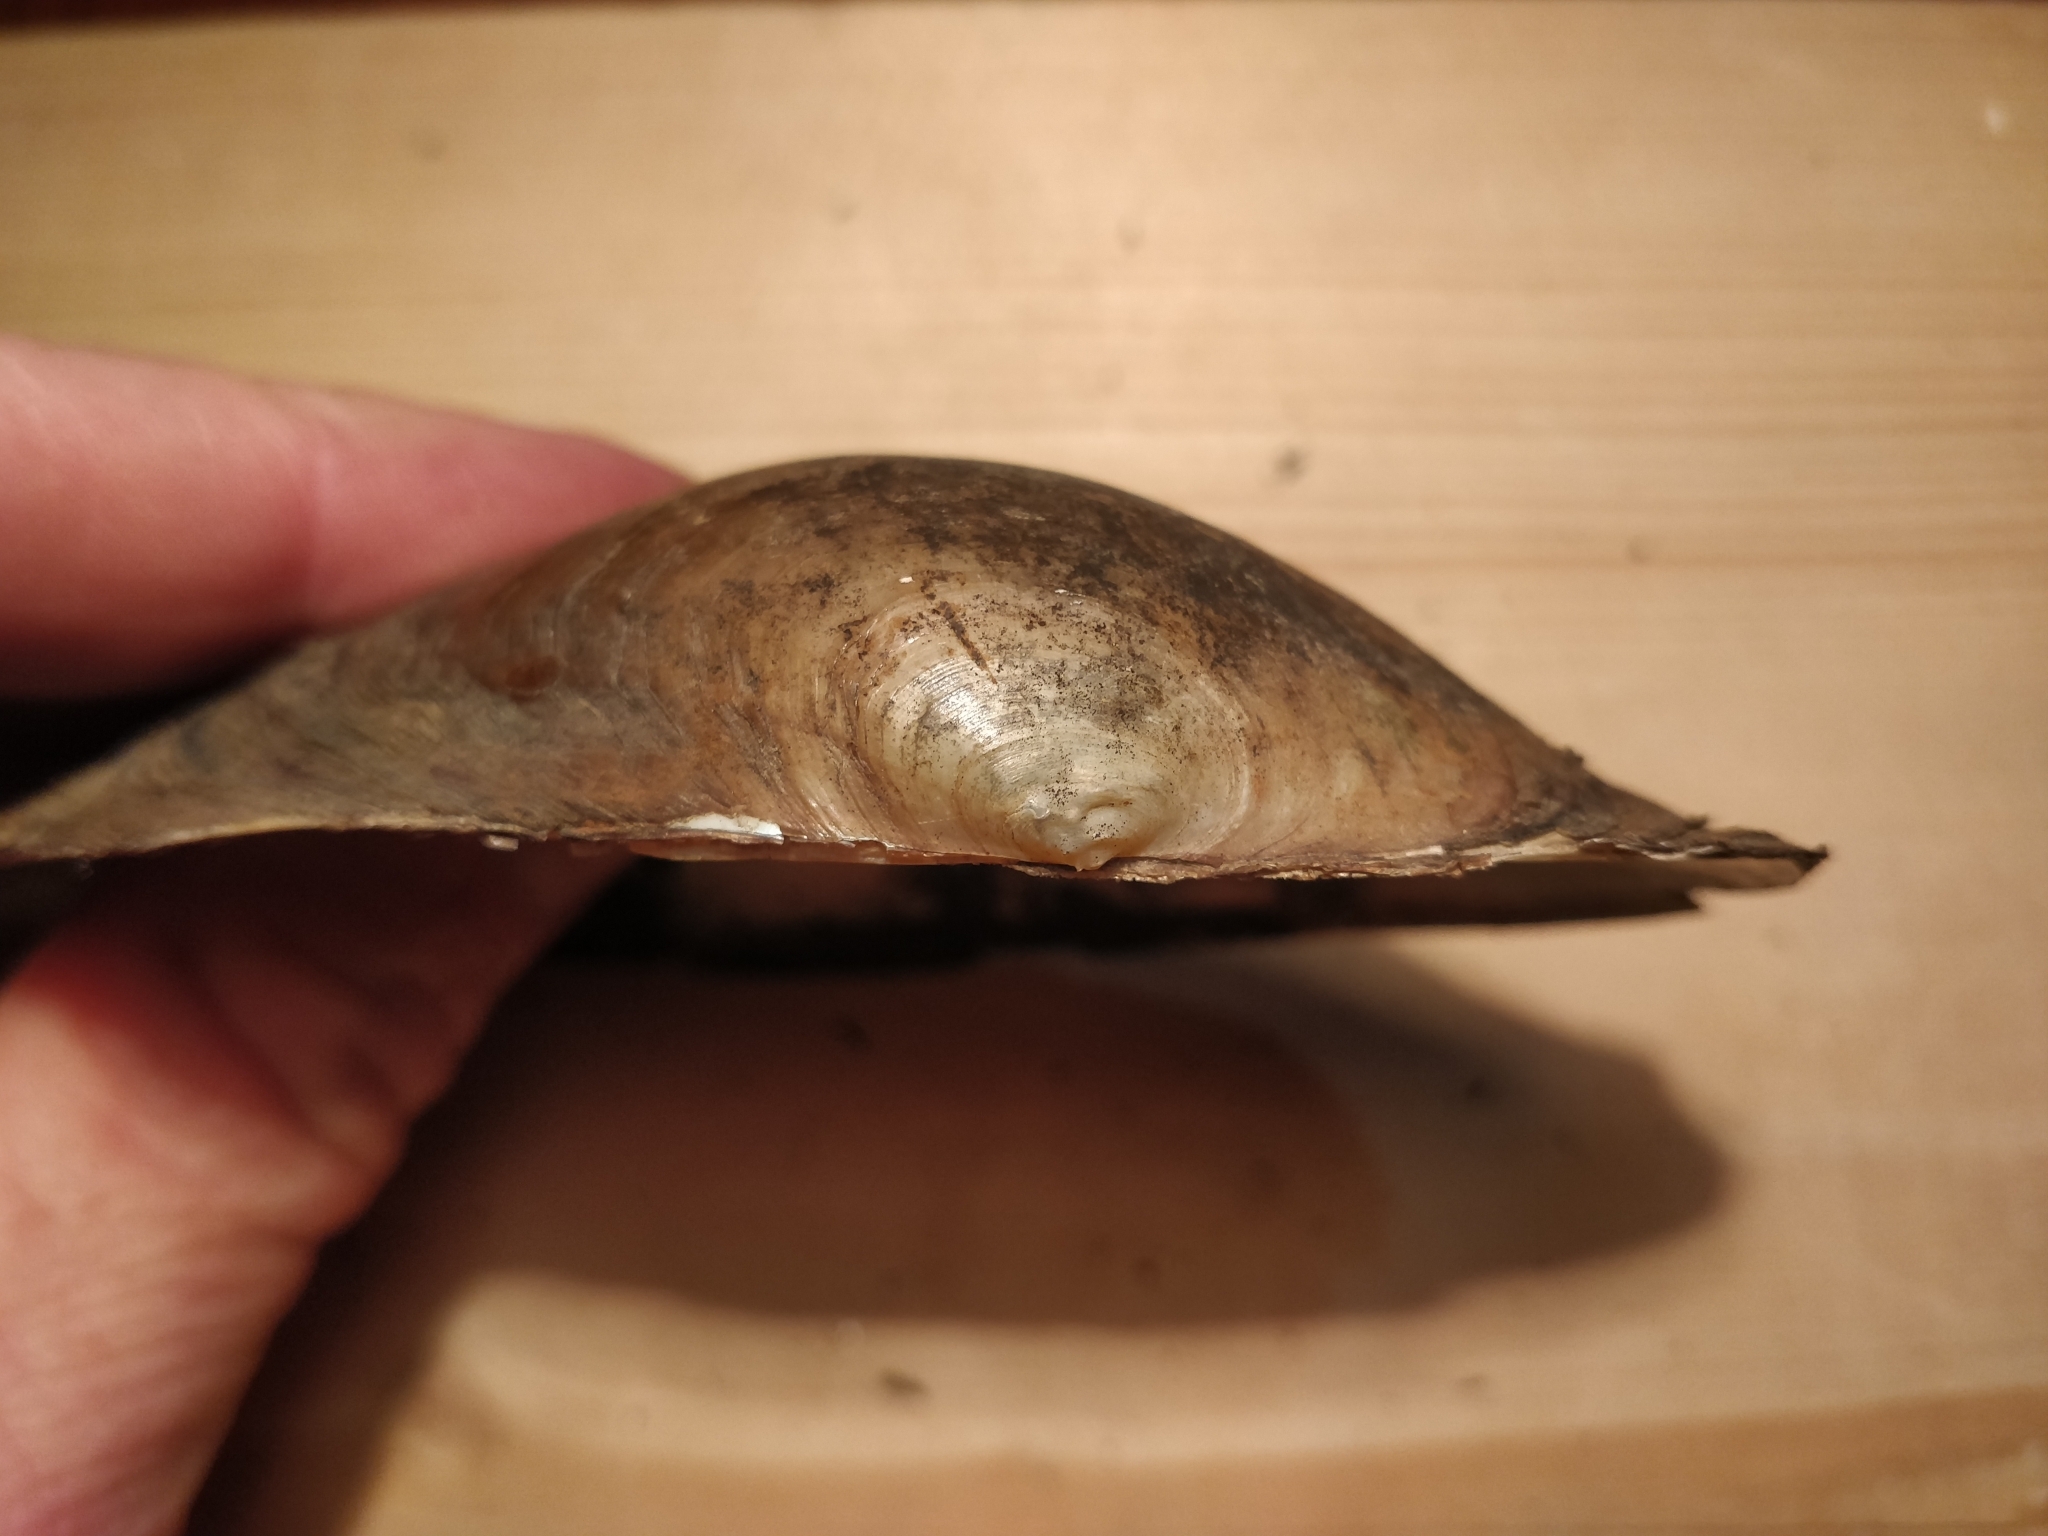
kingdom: Animalia
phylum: Mollusca
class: Bivalvia
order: Unionida
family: Unionidae
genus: Pyganodon
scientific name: Pyganodon grandis
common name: Giant floater
